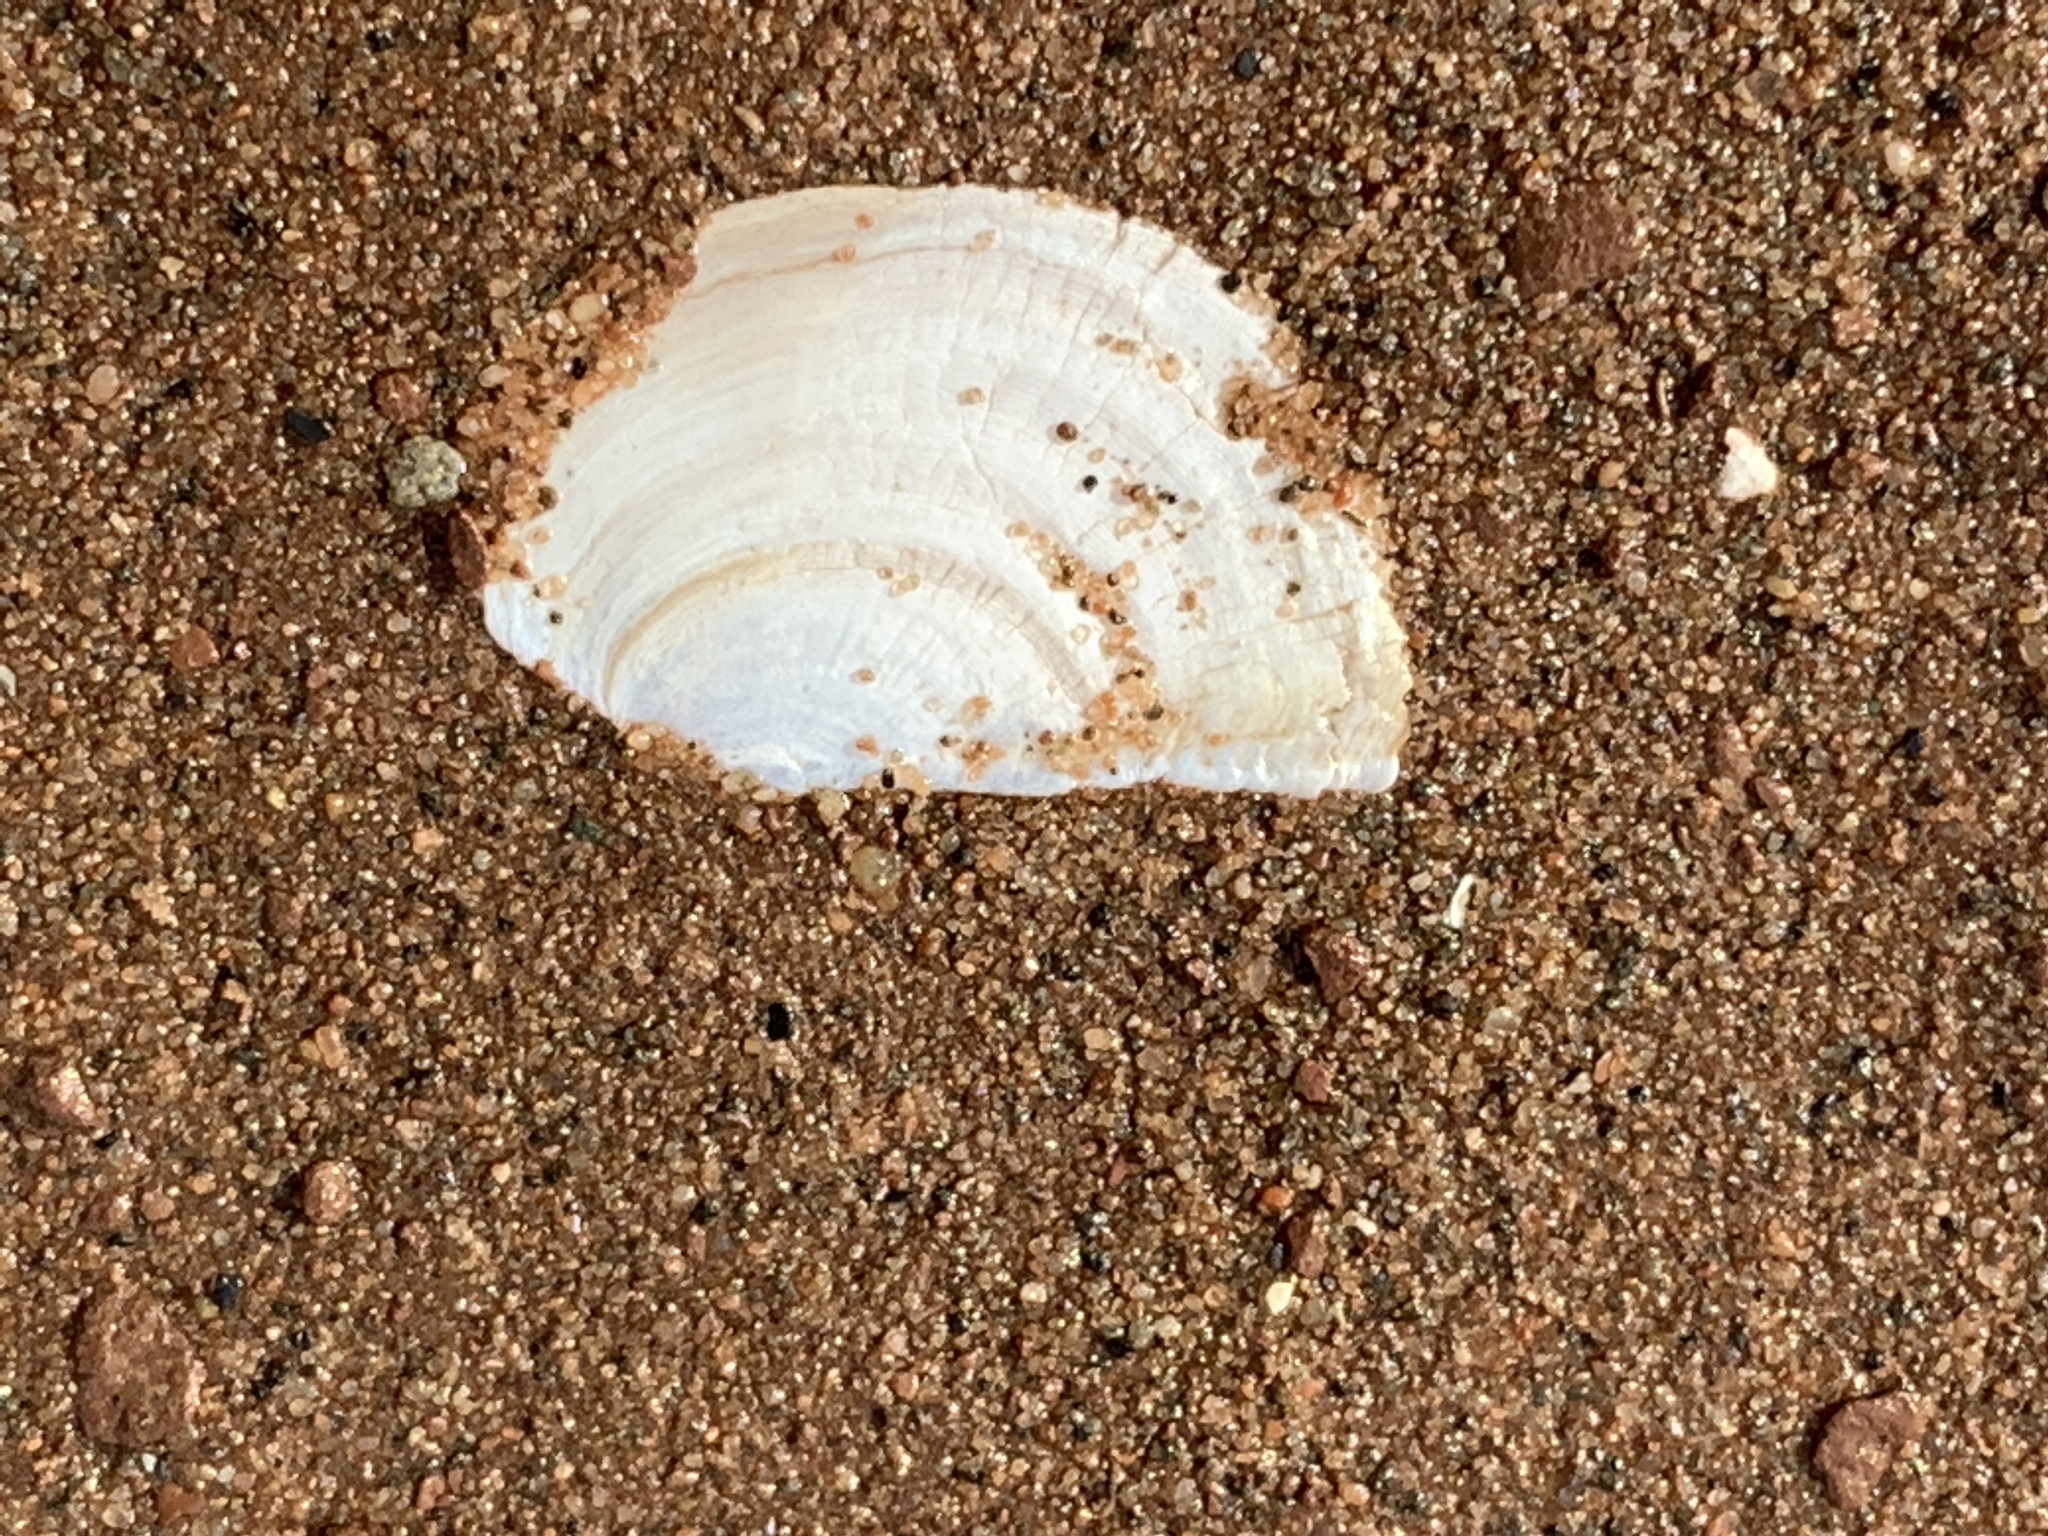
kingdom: Animalia
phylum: Mollusca
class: Bivalvia
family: Pandoridae
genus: Pandora
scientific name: Pandora gouldiana
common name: Rounded pandora
